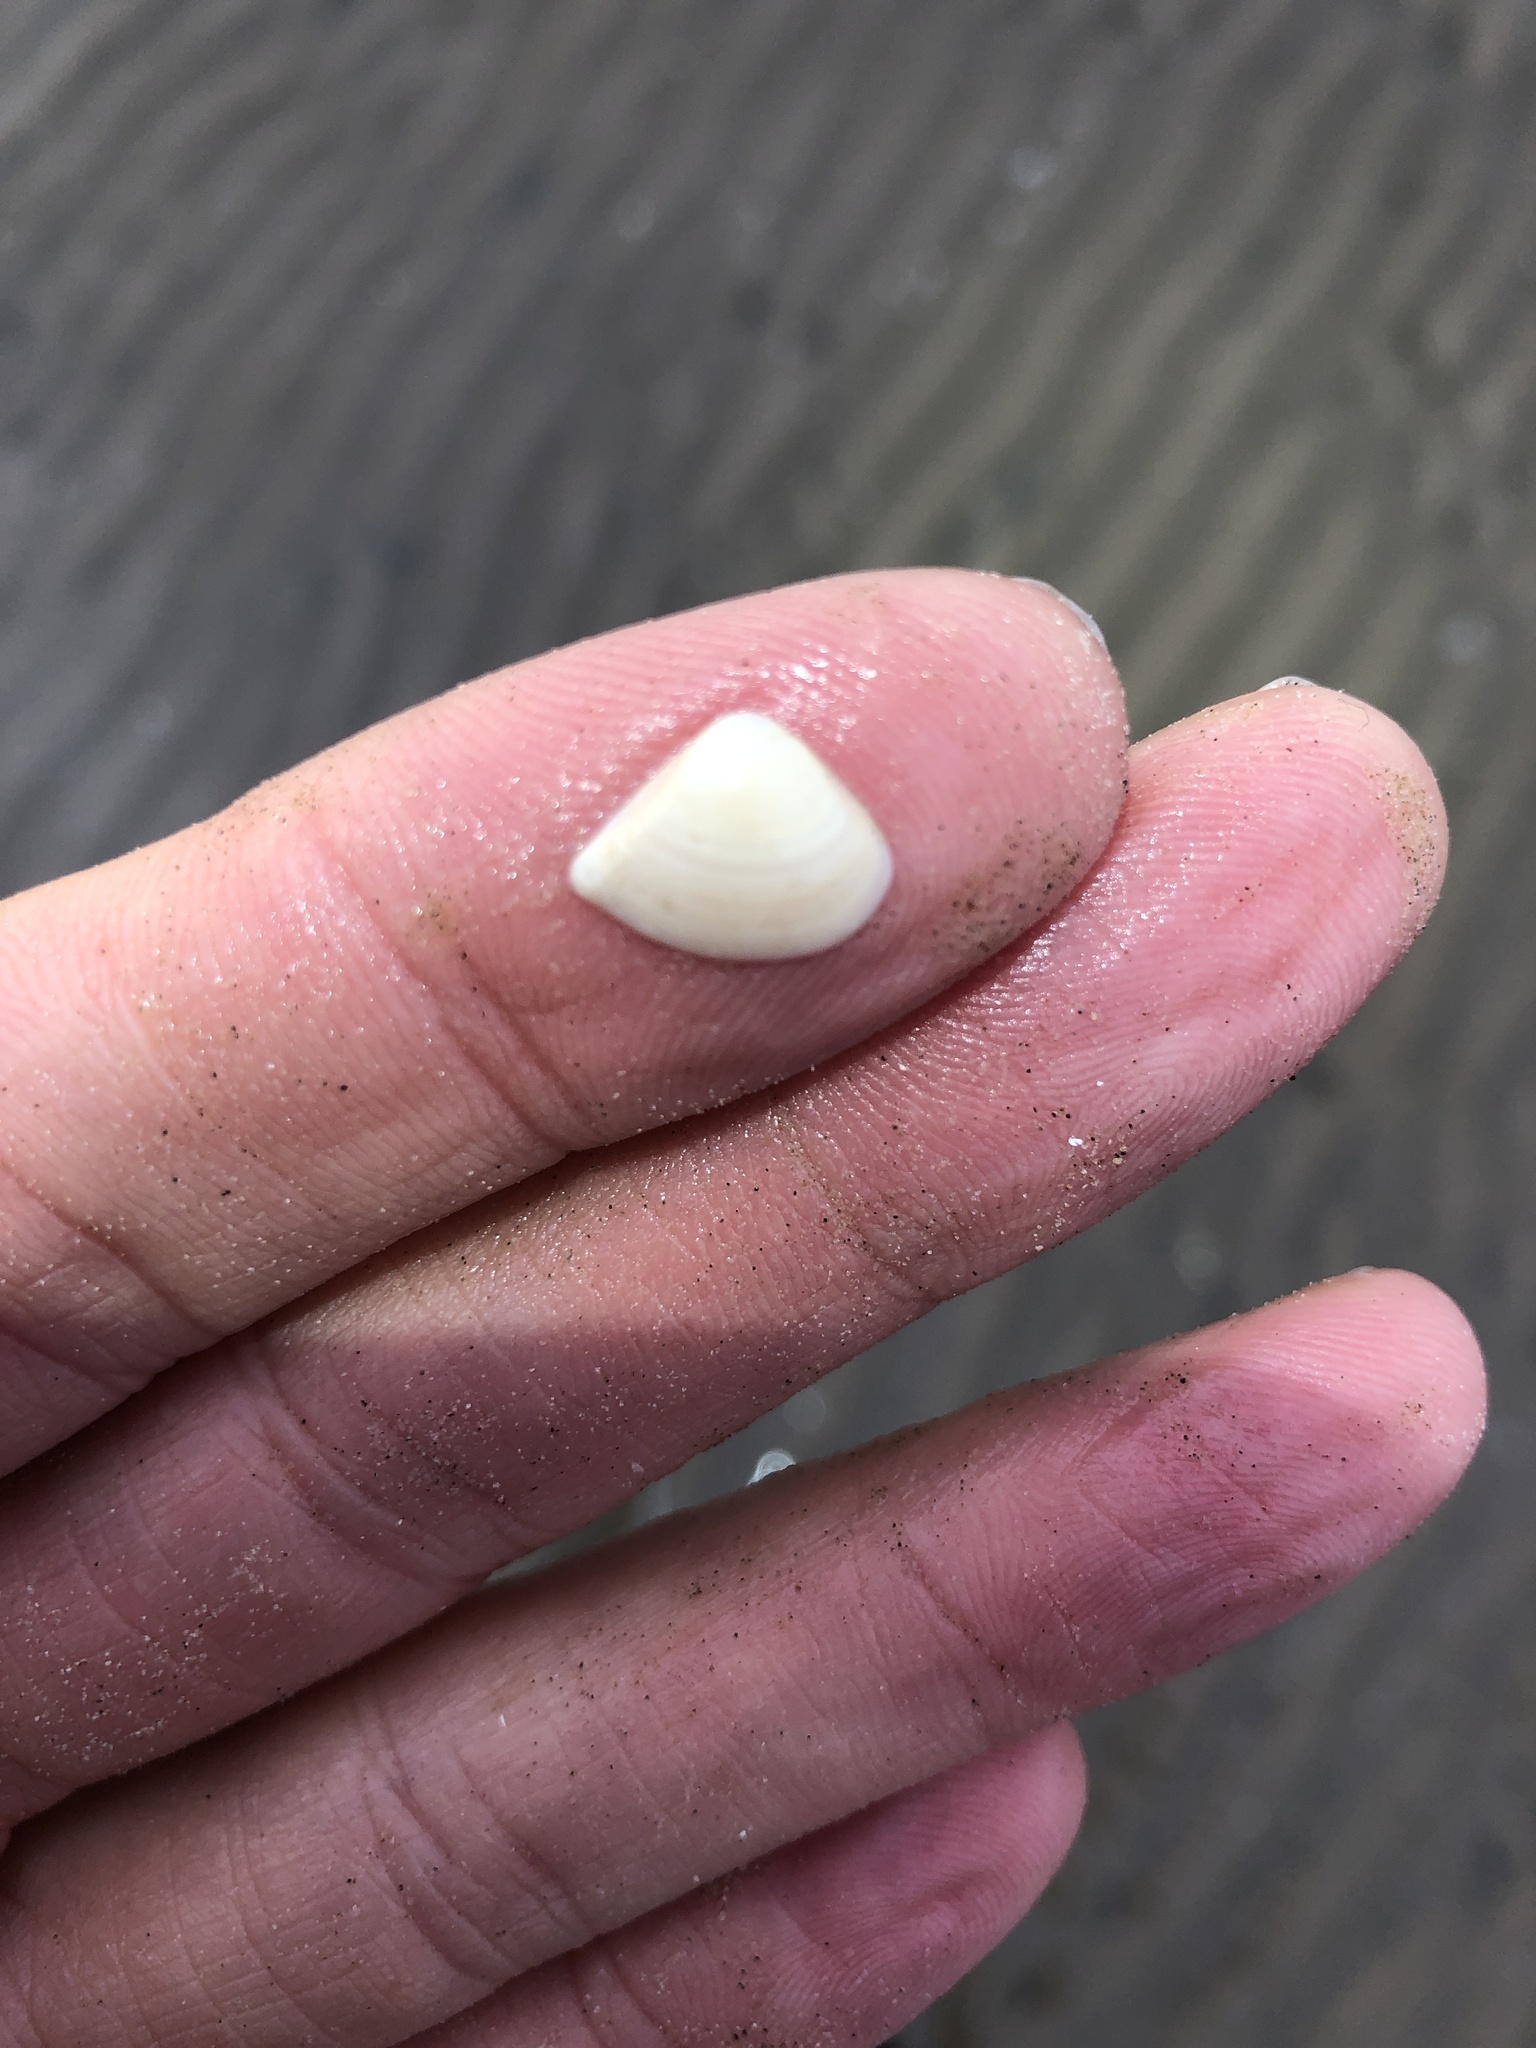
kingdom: Animalia
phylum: Mollusca
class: Bivalvia
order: Venerida
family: Mactridae
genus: Mulinia
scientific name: Mulinia lateralis
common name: Dwarf surfclam
